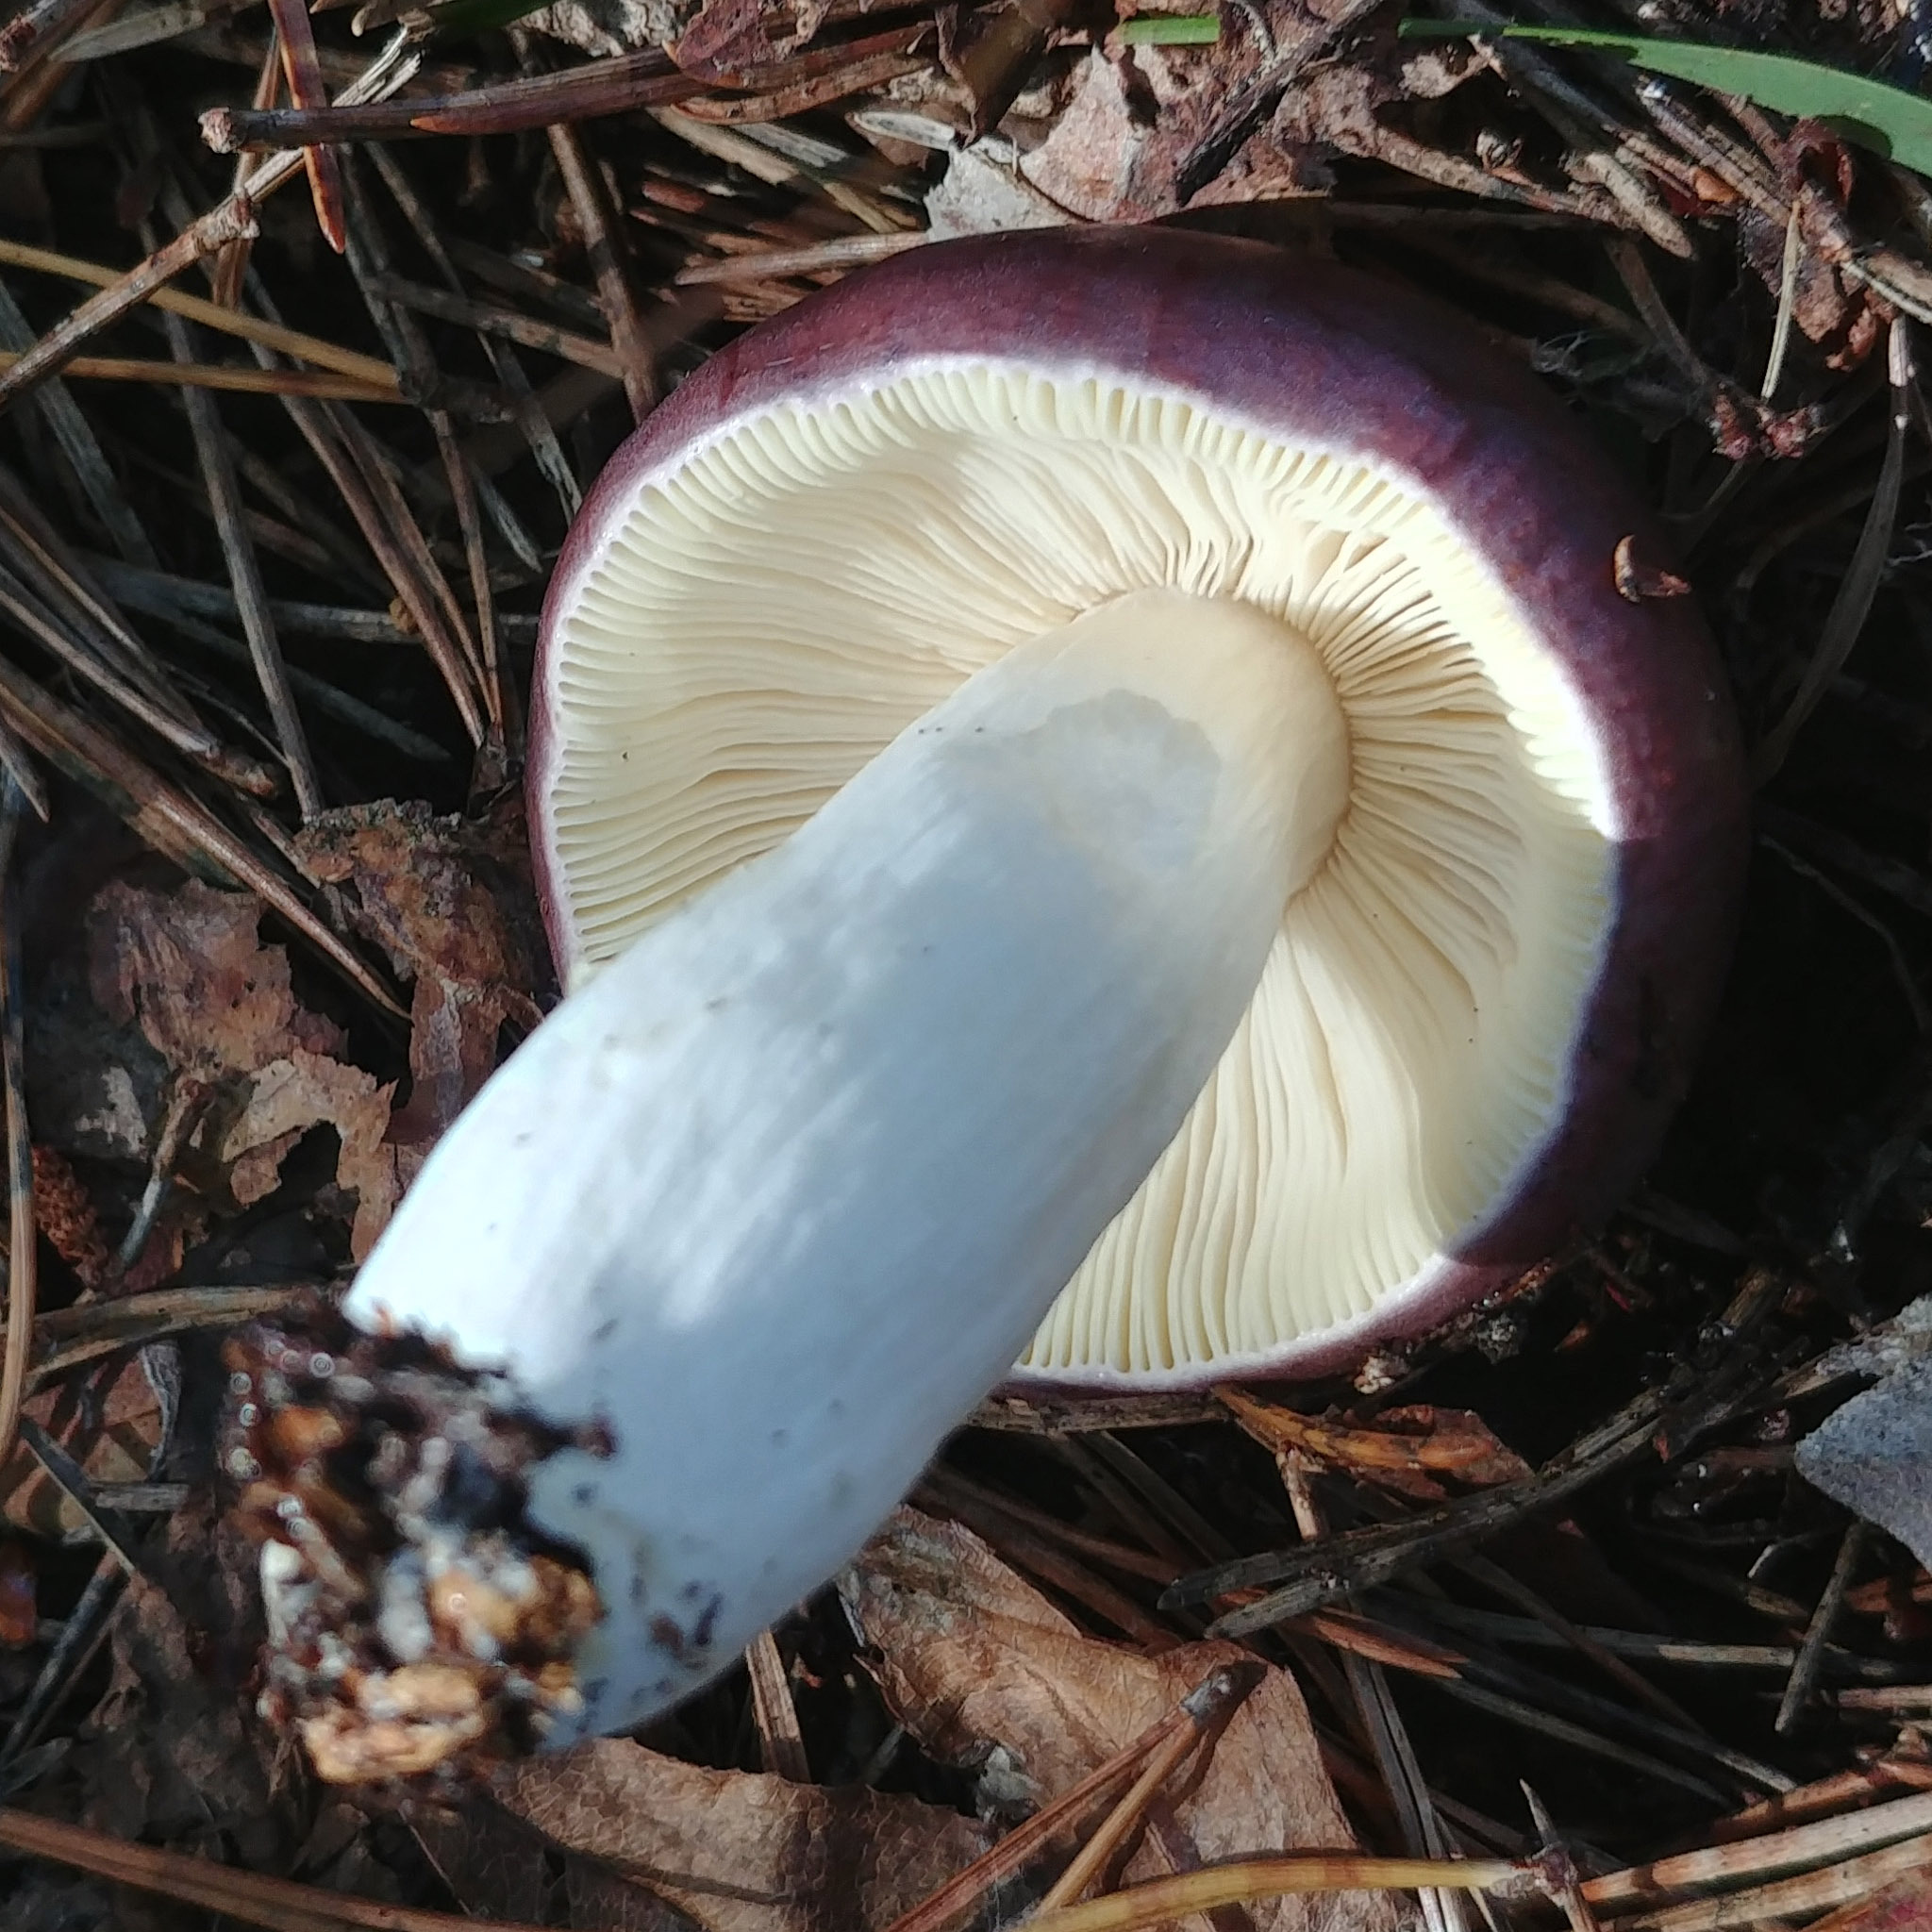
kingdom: Fungi
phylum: Basidiomycota
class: Agaricomycetes
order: Russulales
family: Russulaceae
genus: Russula
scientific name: Russula caerulea
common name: Humpback brittlegill
